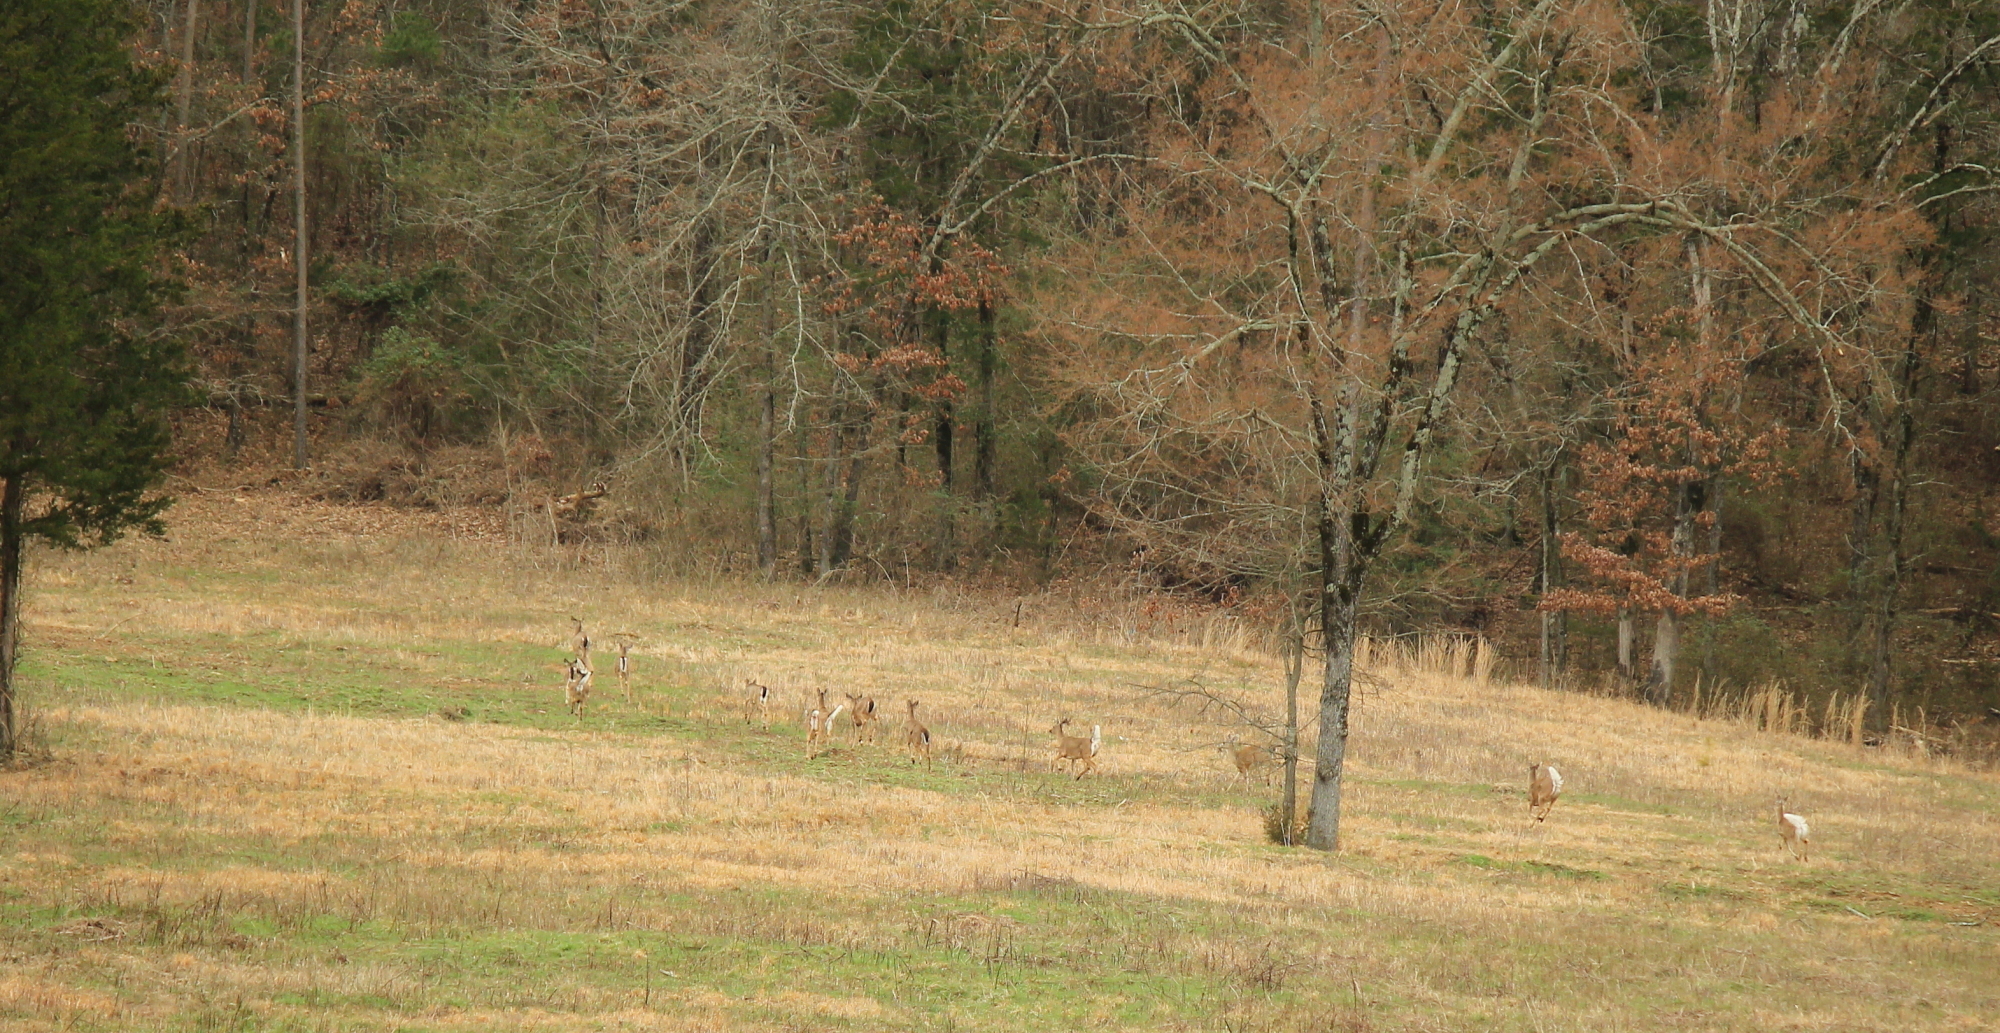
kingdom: Animalia
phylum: Chordata
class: Mammalia
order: Artiodactyla
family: Cervidae
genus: Odocoileus
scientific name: Odocoileus virginianus
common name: White-tailed deer
